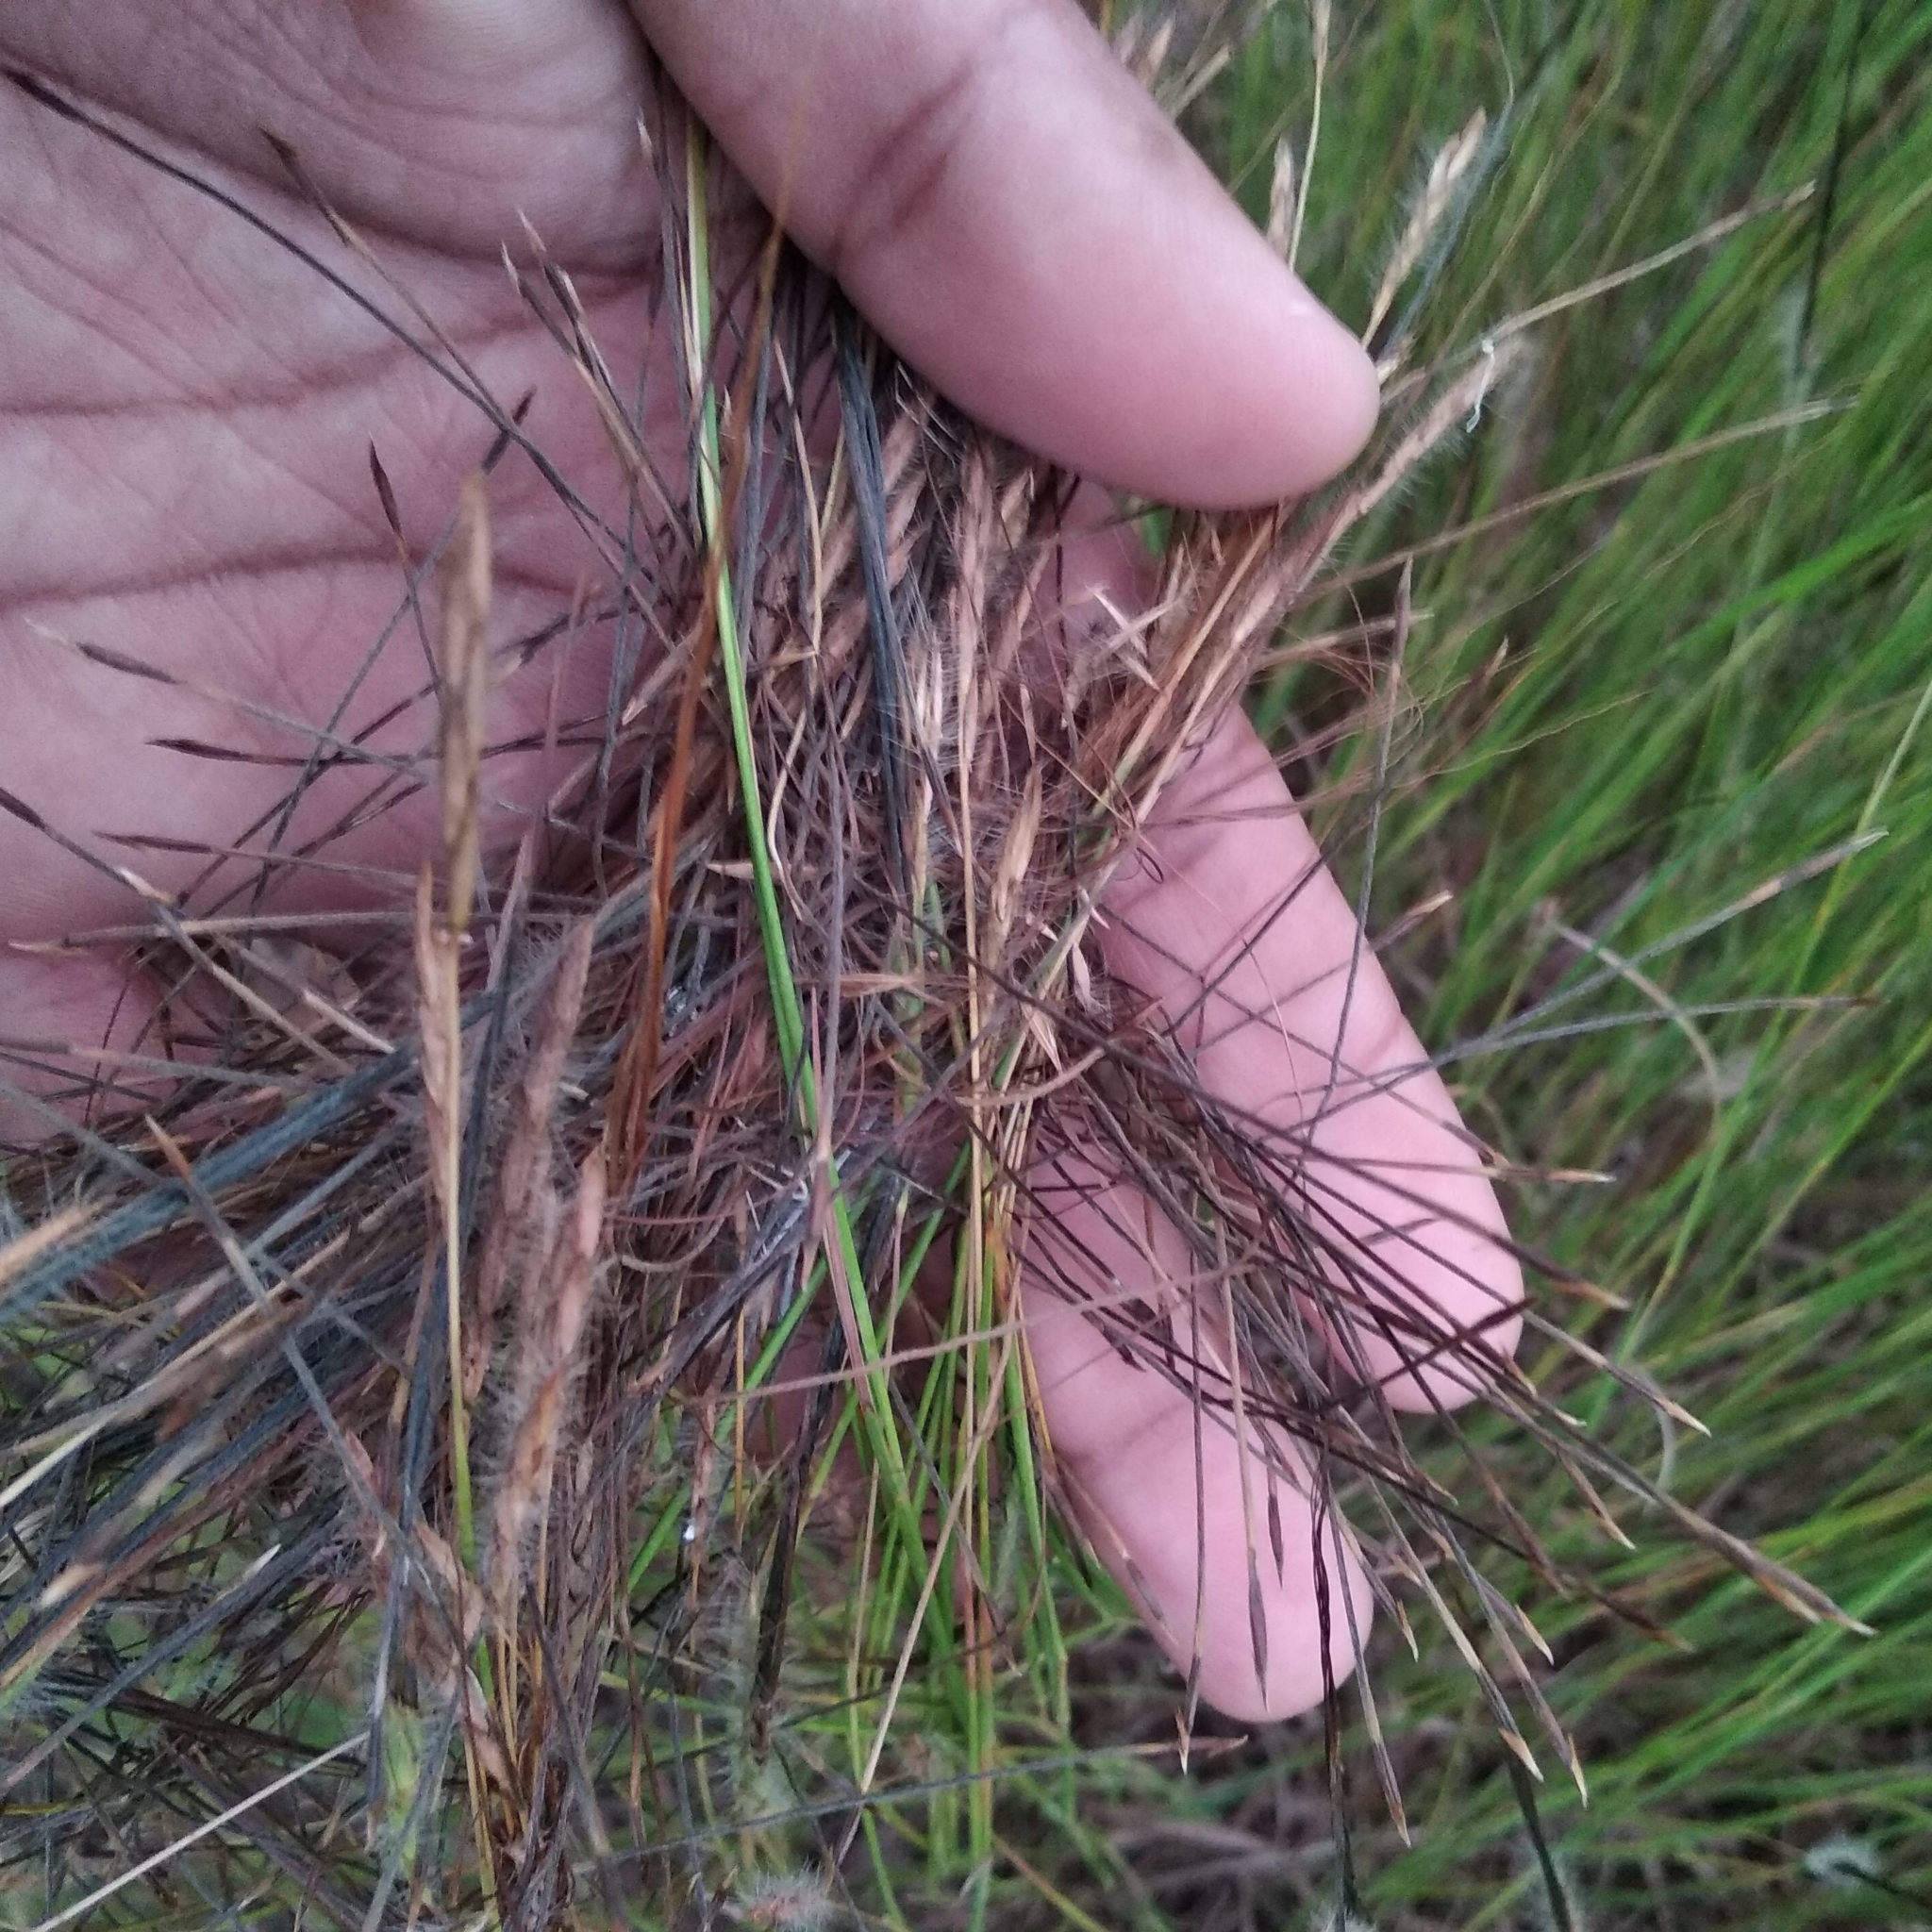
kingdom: Plantae
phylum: Tracheophyta
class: Liliopsida
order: Poales
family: Poaceae
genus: Heteropogon
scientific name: Heteropogon contortus
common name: Tanglehead
